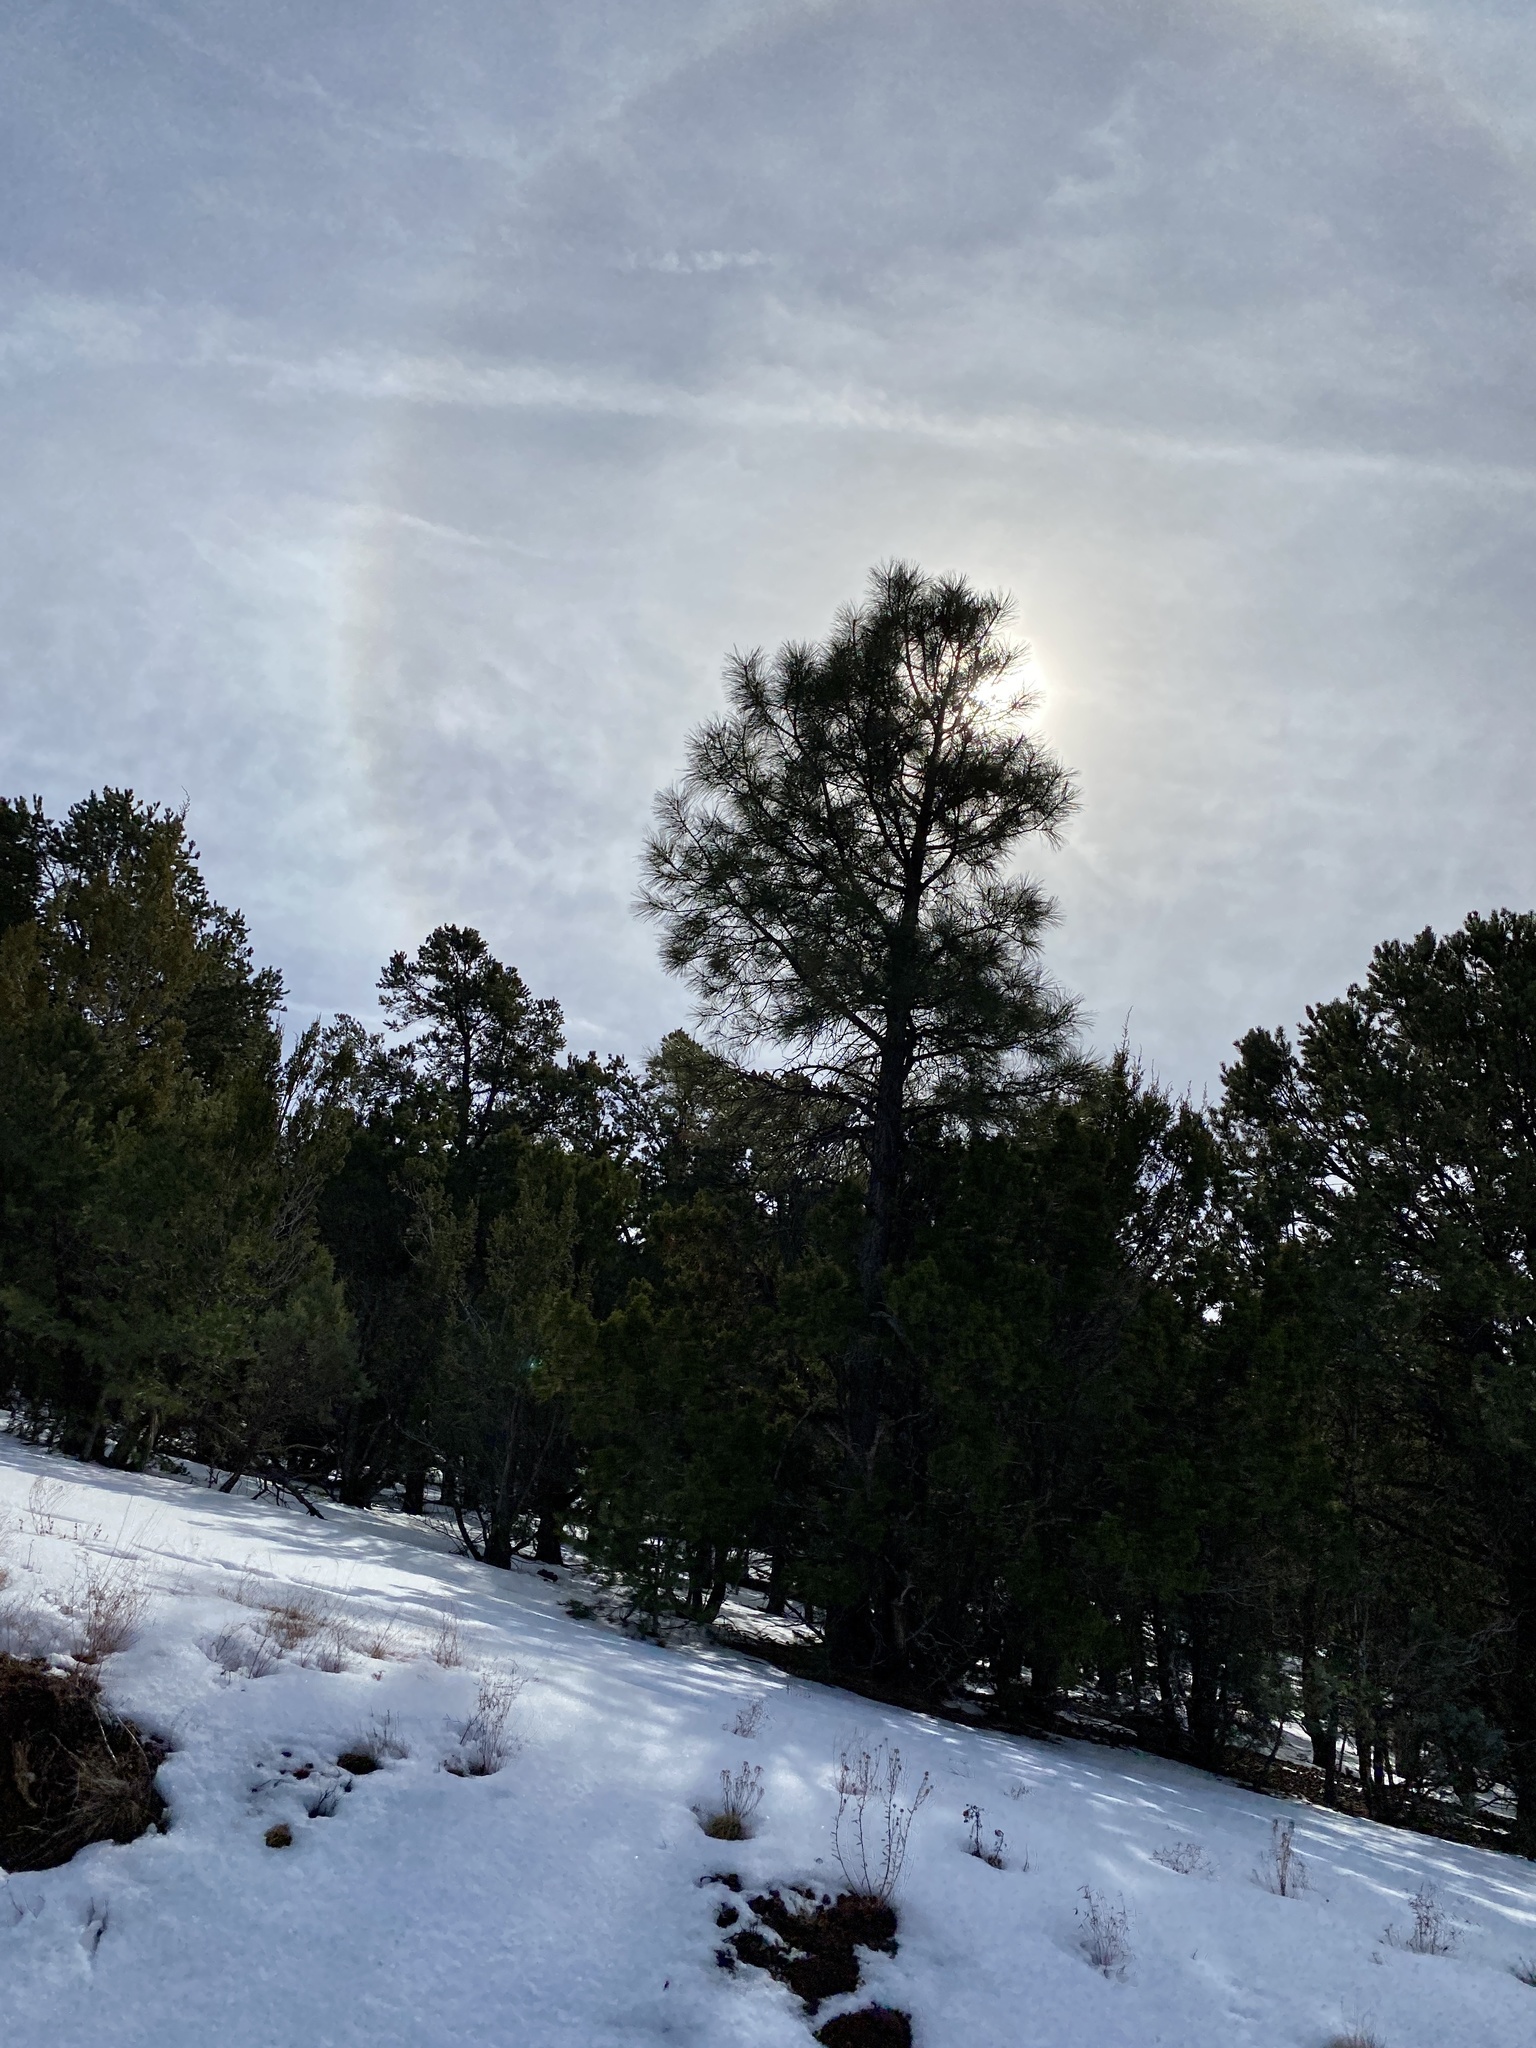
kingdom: Plantae
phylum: Tracheophyta
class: Pinopsida
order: Pinales
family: Pinaceae
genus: Pinus
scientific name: Pinus ponderosa
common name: Western yellow-pine
